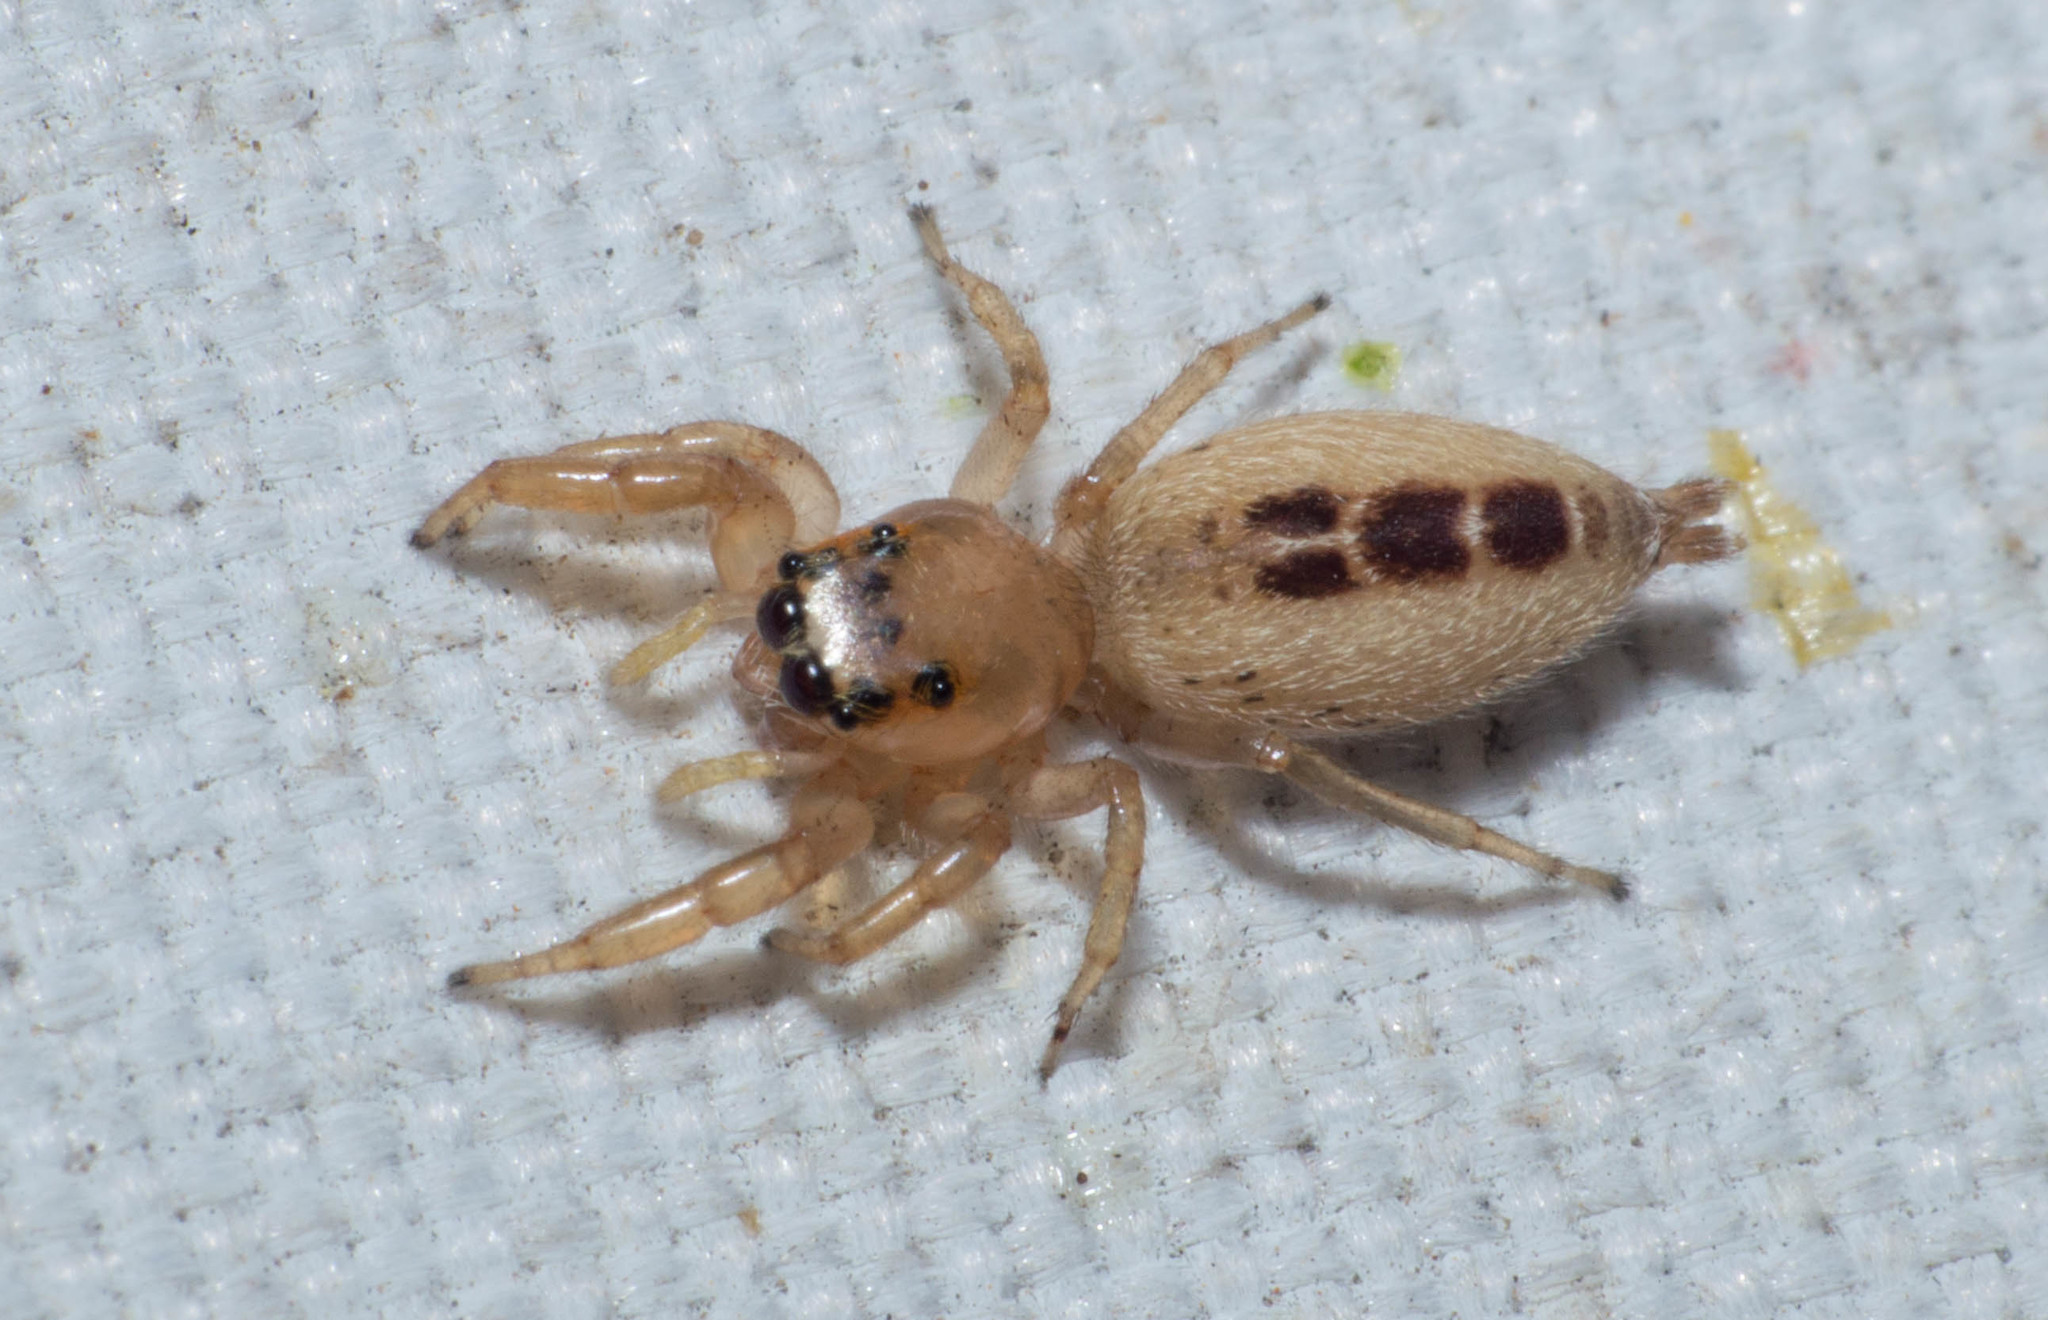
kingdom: Animalia
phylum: Arthropoda
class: Arachnida
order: Araneae
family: Salticidae
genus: Cotinusa
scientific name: Cotinusa vittata
